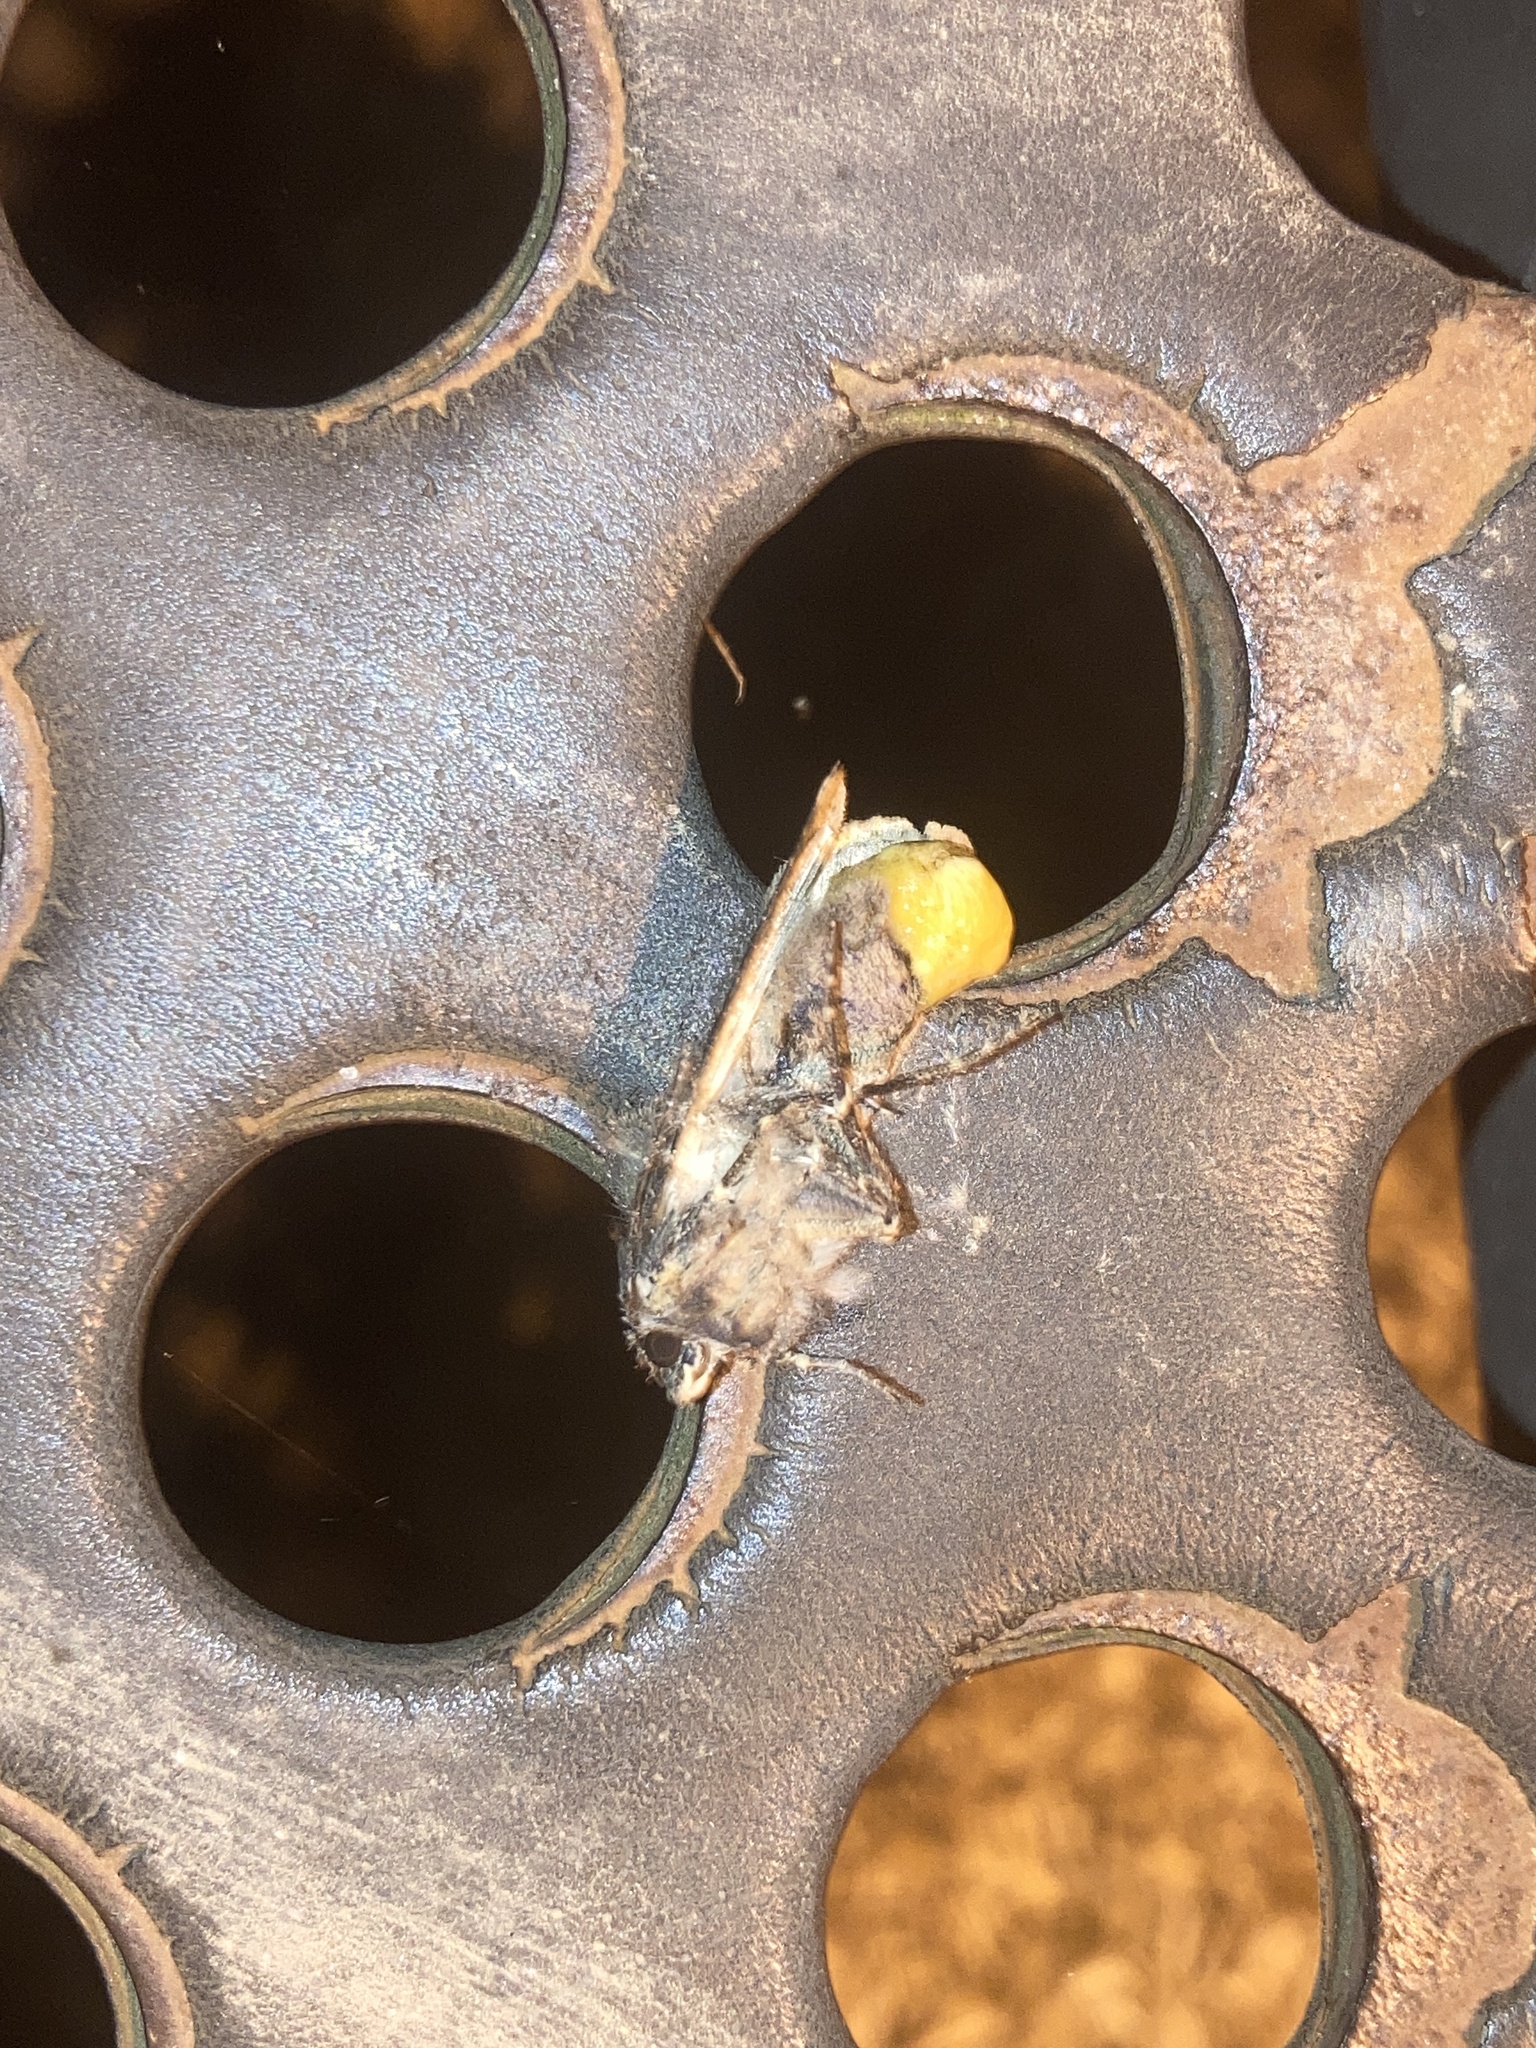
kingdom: Animalia
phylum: Arthropoda
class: Insecta
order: Lepidoptera
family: Noctuidae
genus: Agrotis
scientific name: Agrotis ipsilon
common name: Dark sword-grass
